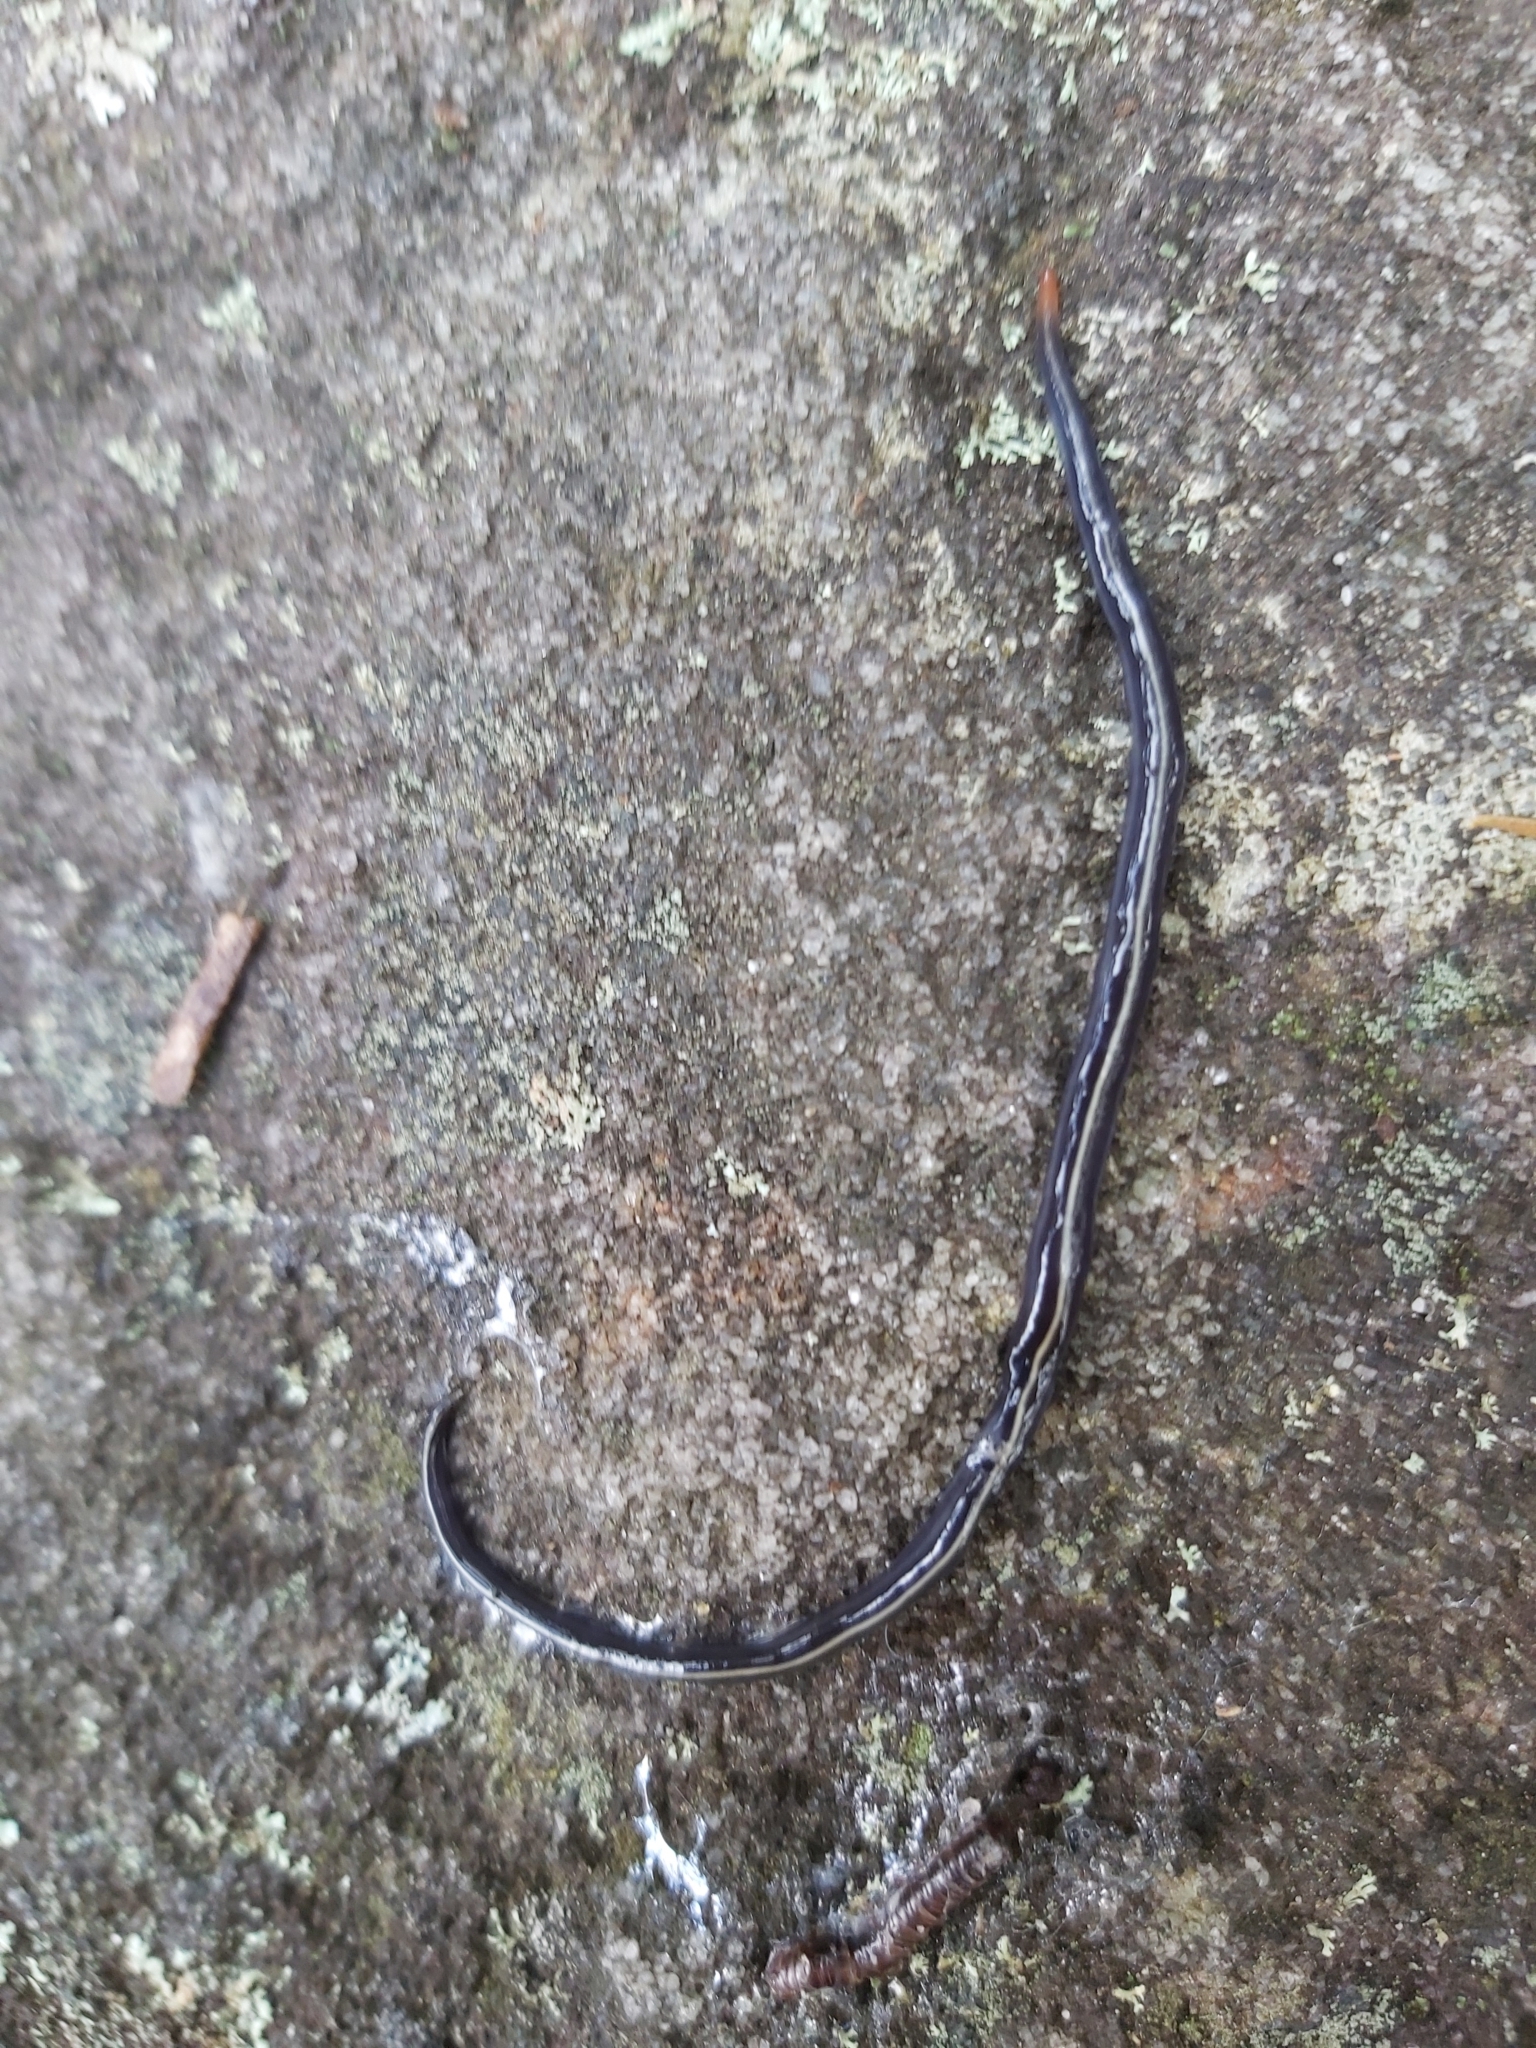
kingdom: Animalia
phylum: Platyhelminthes
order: Tricladida
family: Geoplanidae
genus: Caenoplana
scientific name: Caenoplana coerulea
